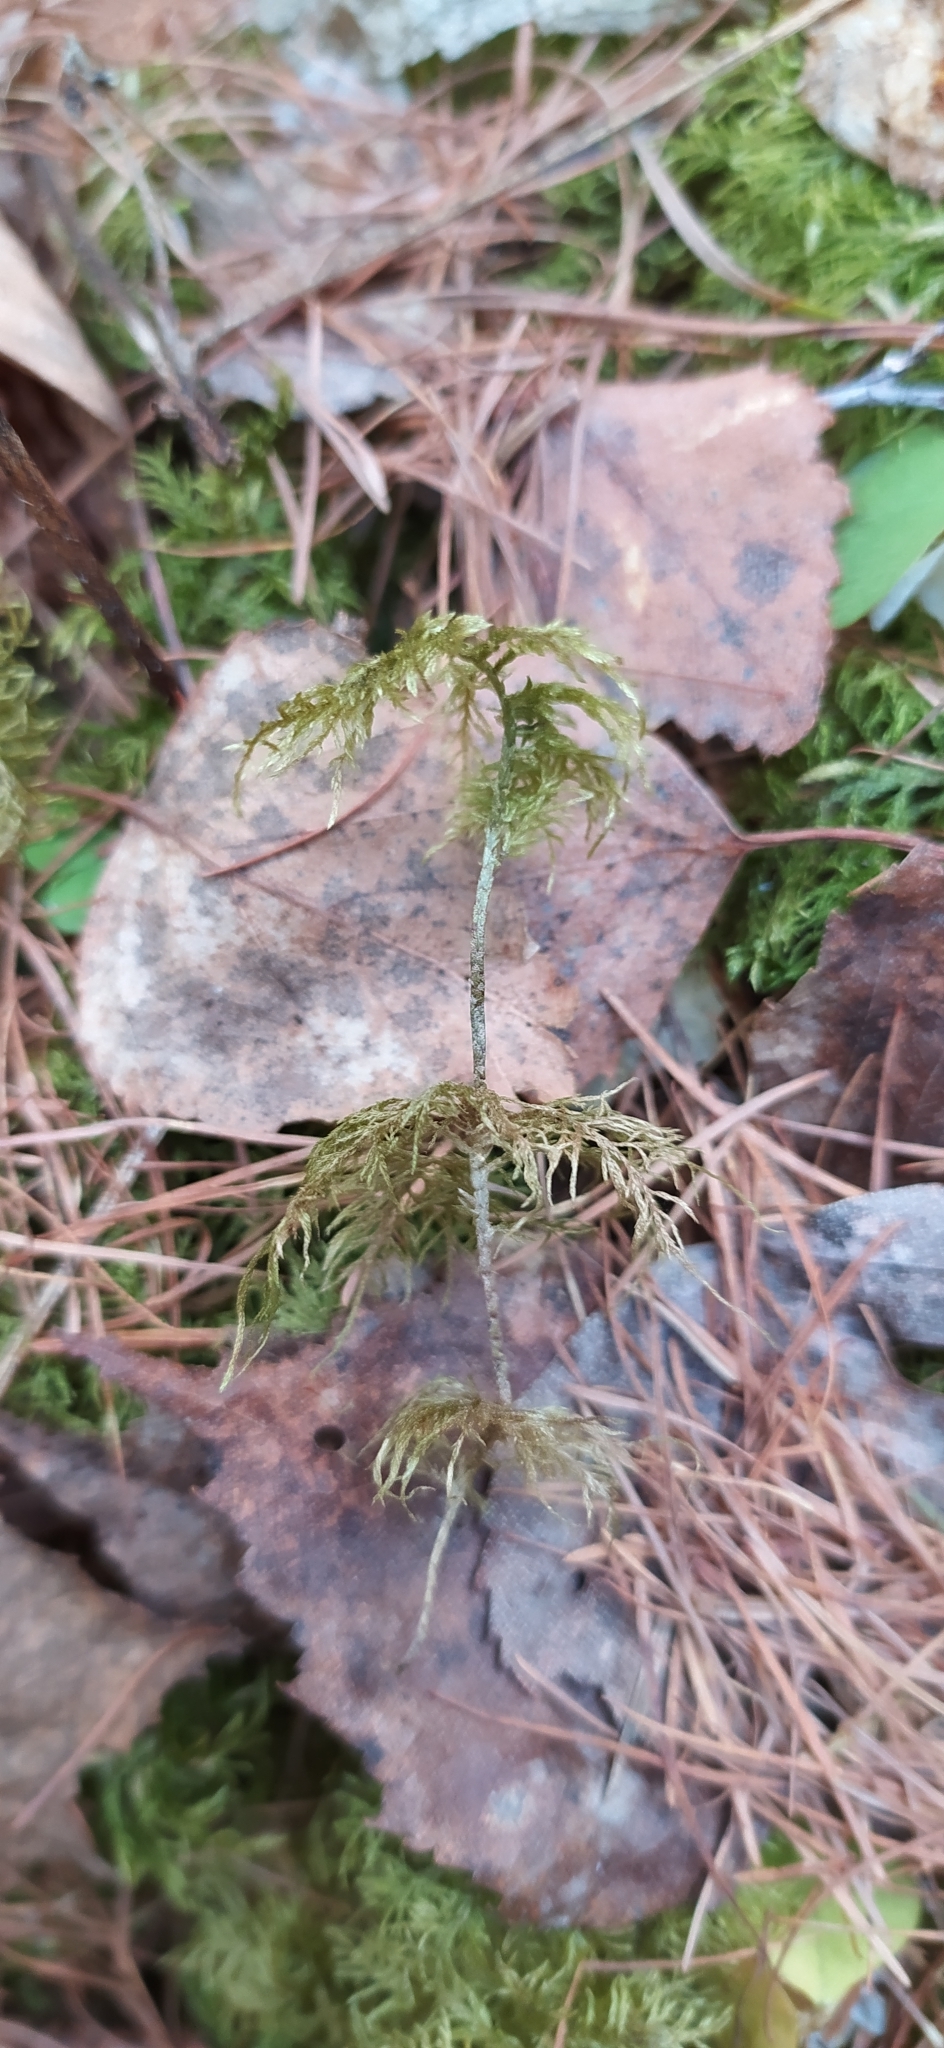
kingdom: Plantae
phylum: Bryophyta
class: Bryopsida
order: Hypnales
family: Hylocomiaceae
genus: Hylocomium
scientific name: Hylocomium splendens
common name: Stairstep moss
